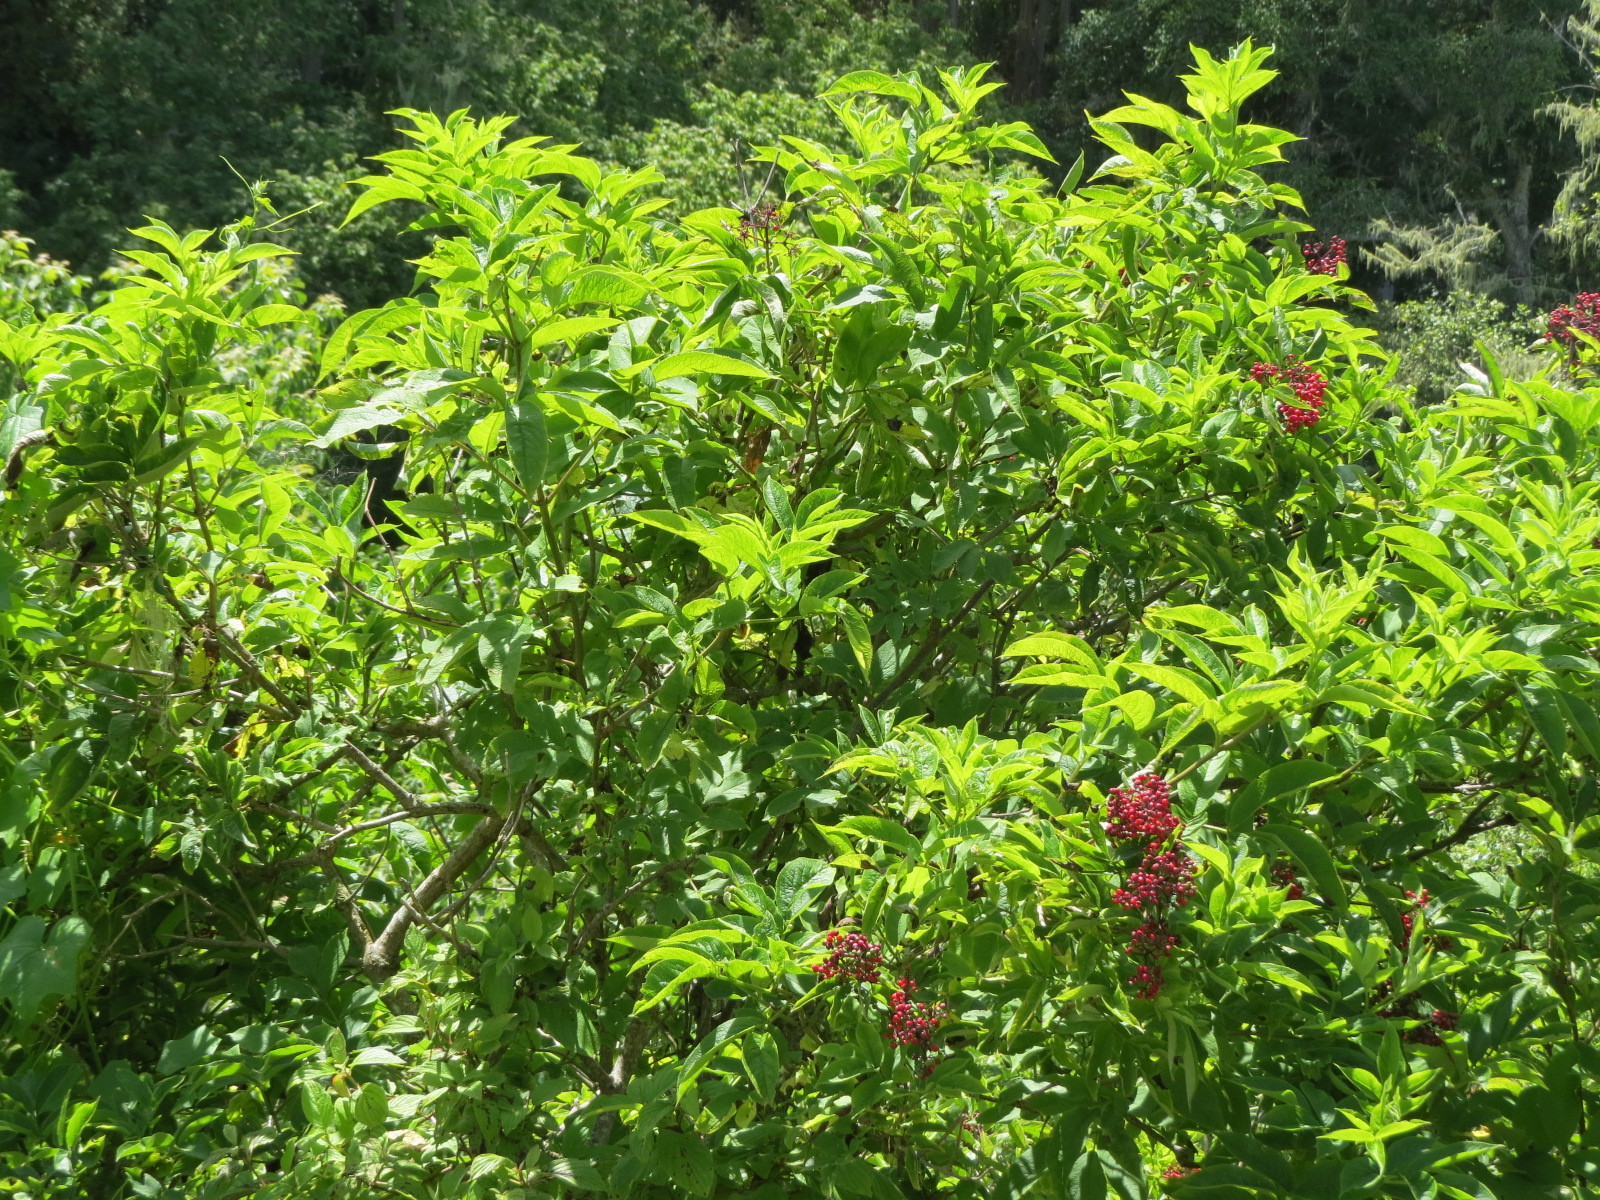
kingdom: Plantae
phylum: Tracheophyta
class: Magnoliopsida
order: Dipsacales
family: Viburnaceae
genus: Sambucus
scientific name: Sambucus racemosa
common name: Red-berried elder
